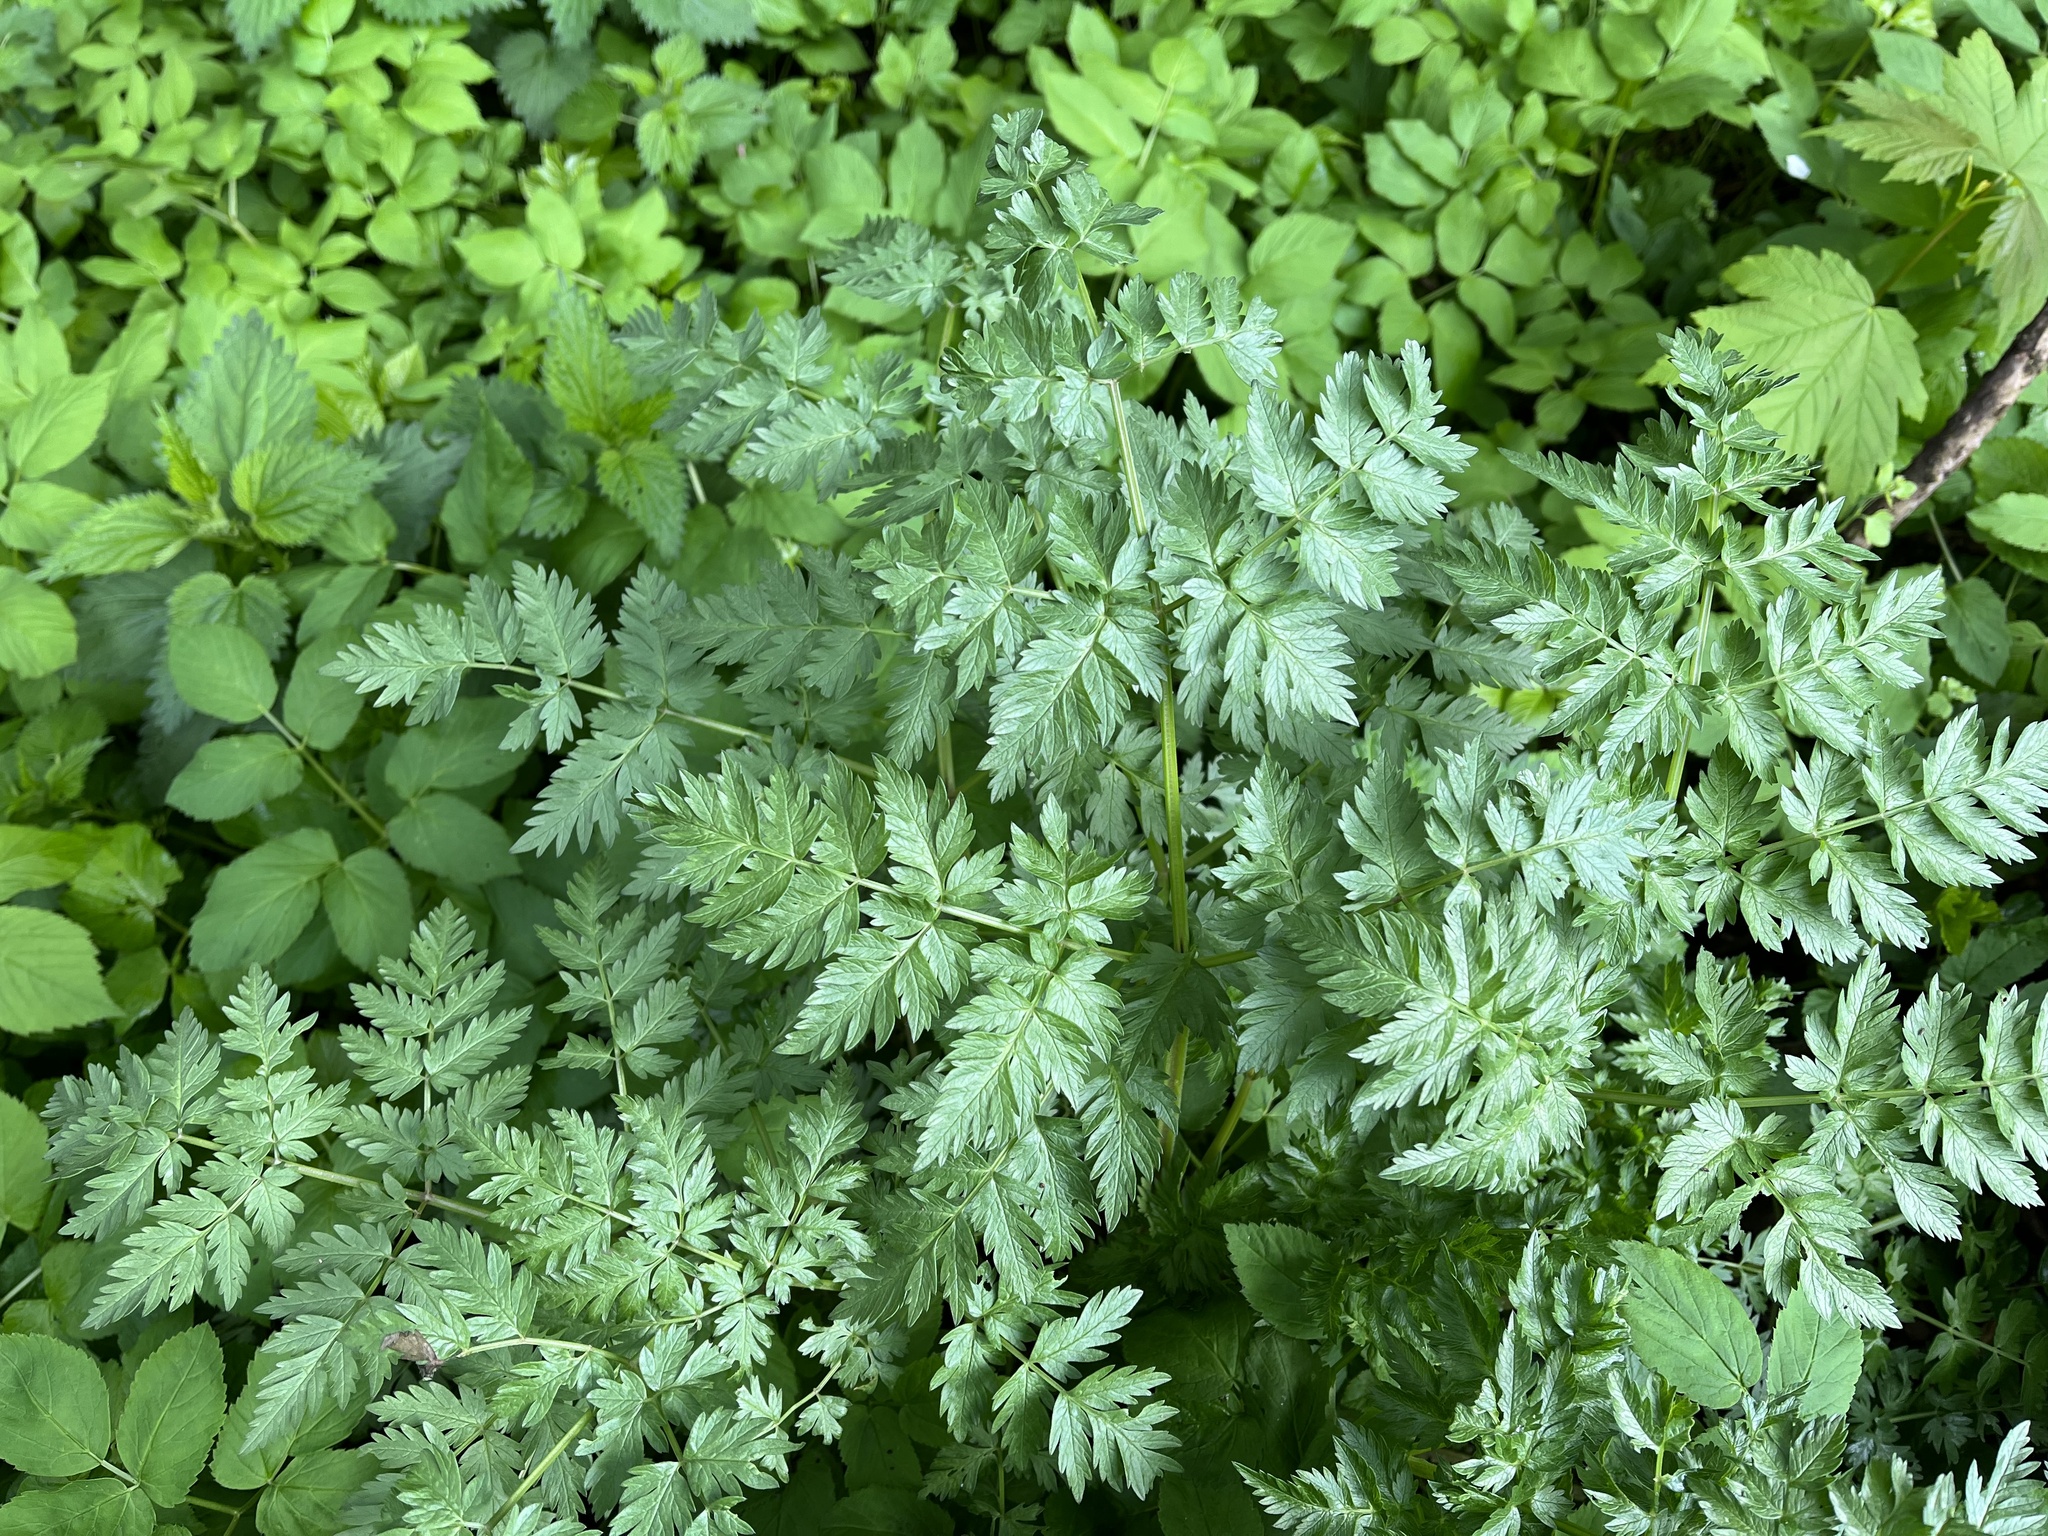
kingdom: Plantae
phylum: Tracheophyta
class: Magnoliopsida
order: Apiales
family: Apiaceae
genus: Anthriscus
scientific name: Anthriscus sylvestris
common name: Cow parsley
